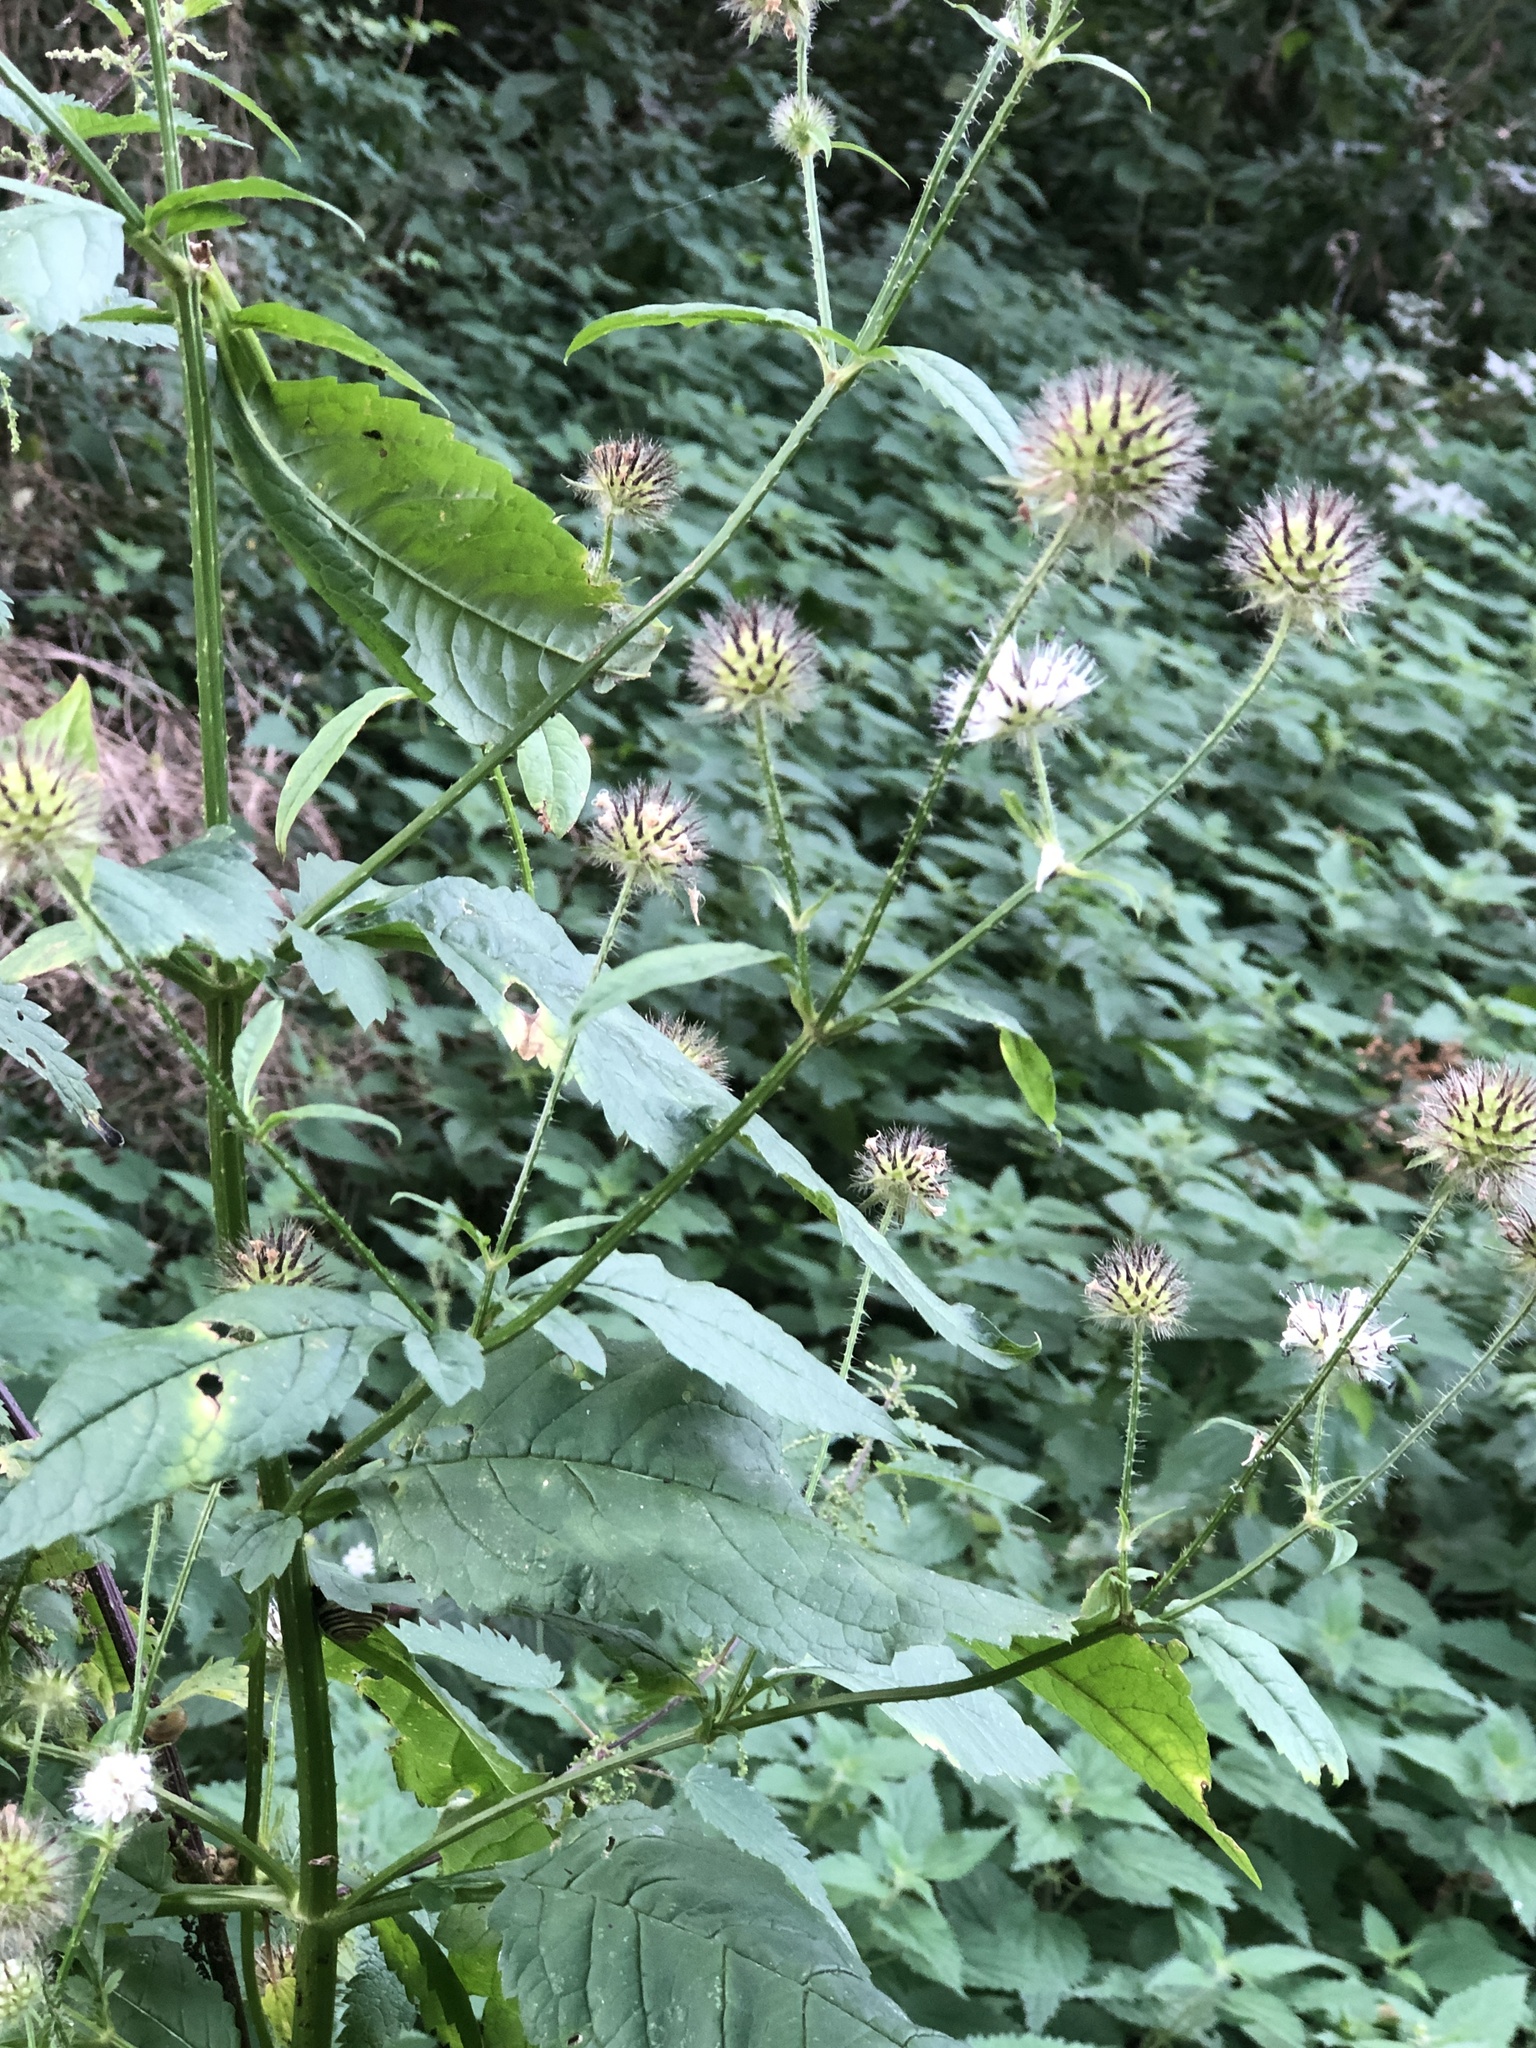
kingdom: Plantae
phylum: Tracheophyta
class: Magnoliopsida
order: Dipsacales
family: Caprifoliaceae
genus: Dipsacus
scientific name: Dipsacus pilosus
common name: Small teasel
